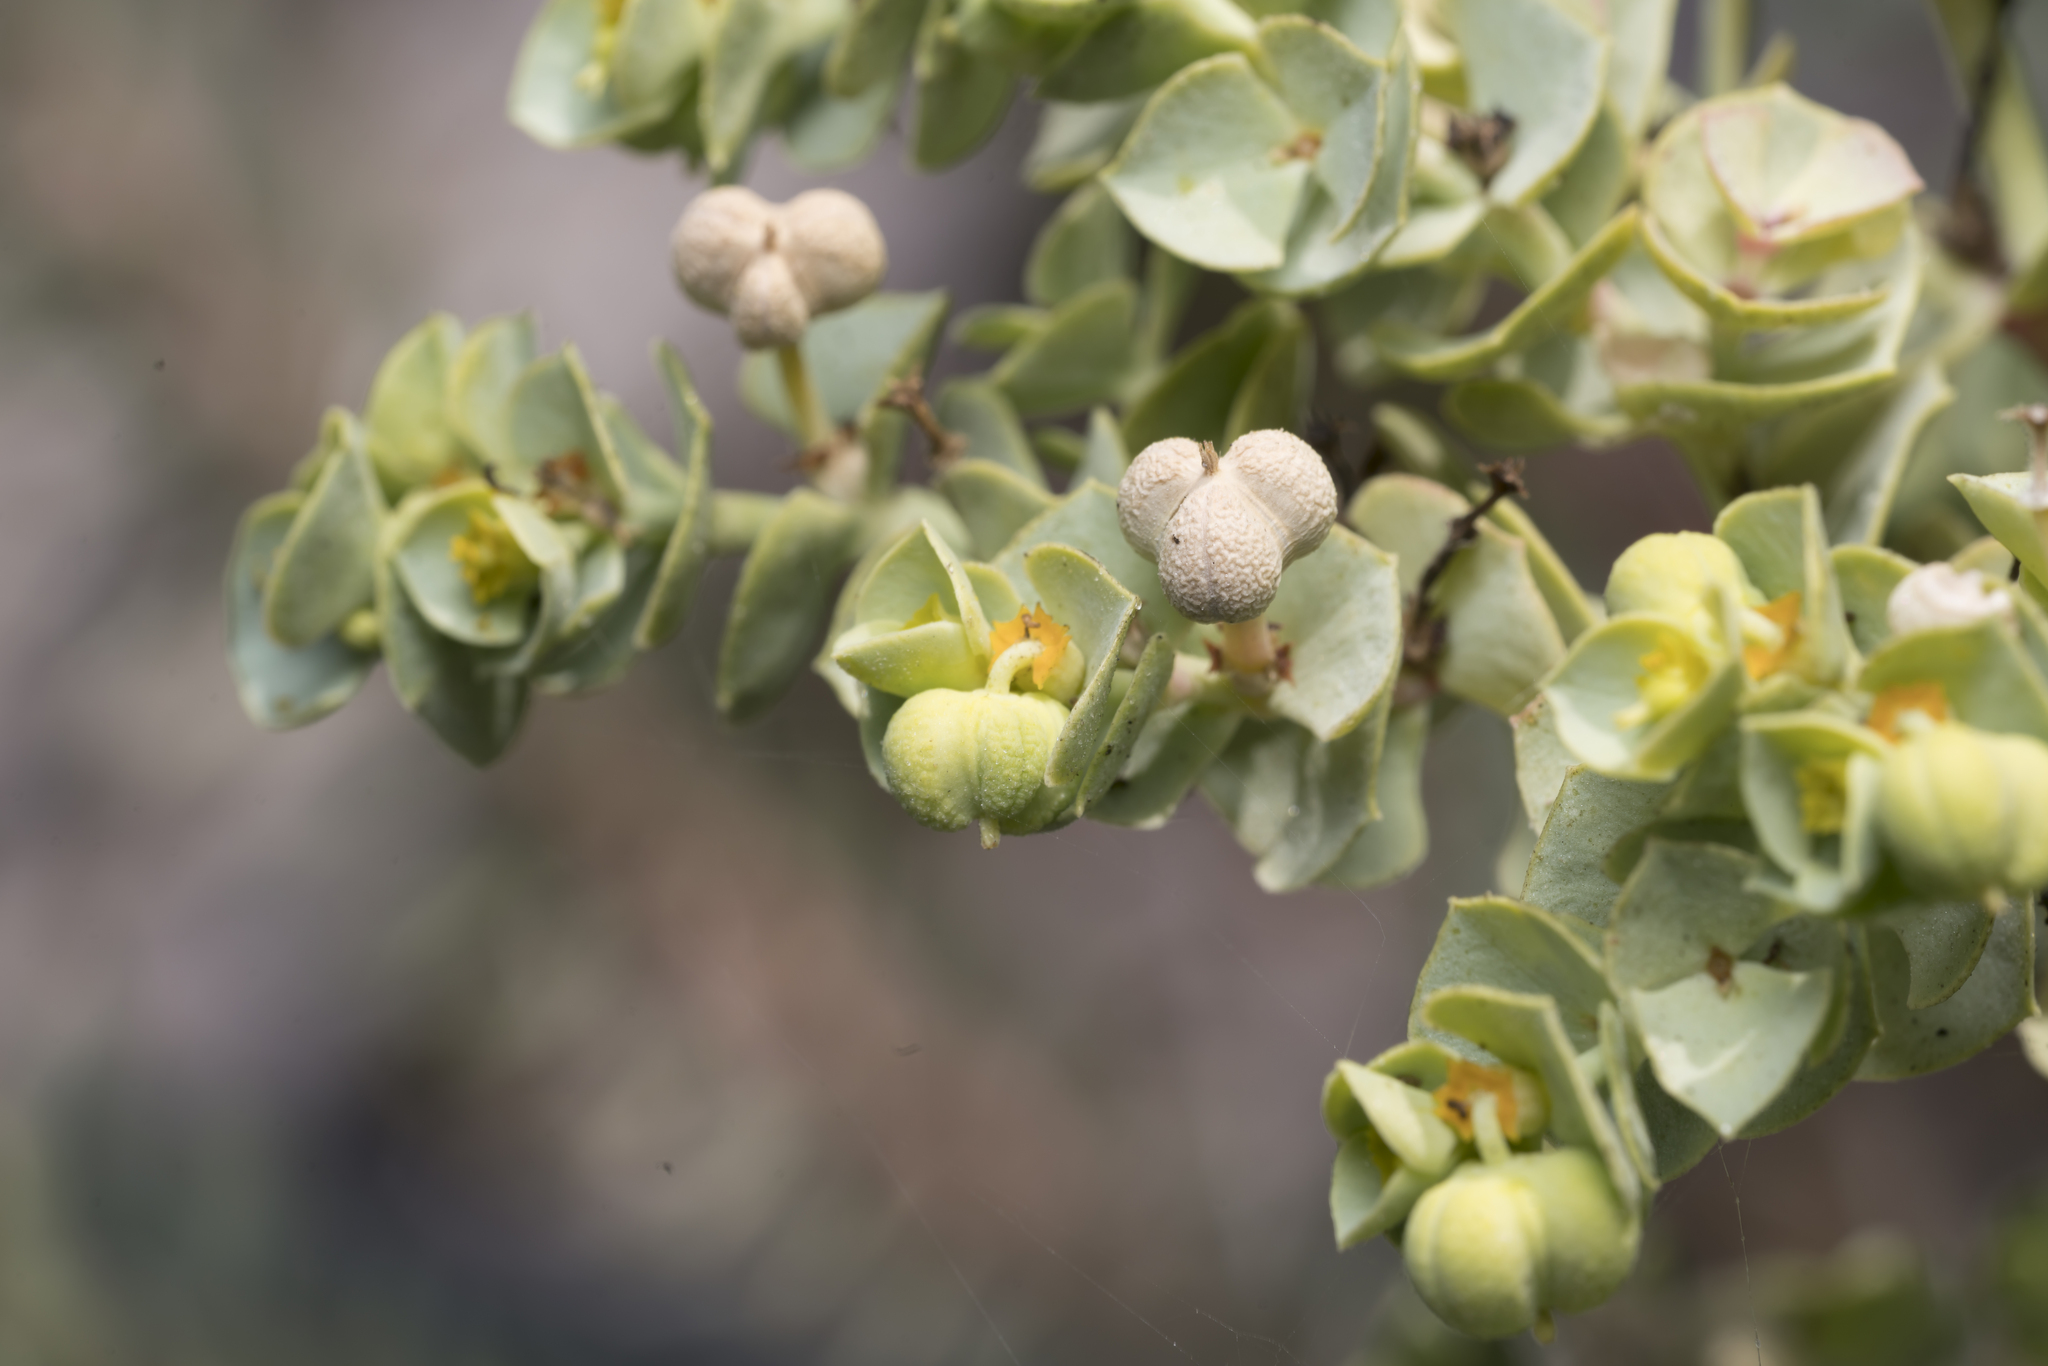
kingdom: Plantae
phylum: Tracheophyta
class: Magnoliopsida
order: Malpighiales
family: Euphorbiaceae
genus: Euphorbia
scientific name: Euphorbia paralias
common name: Sea spurge
